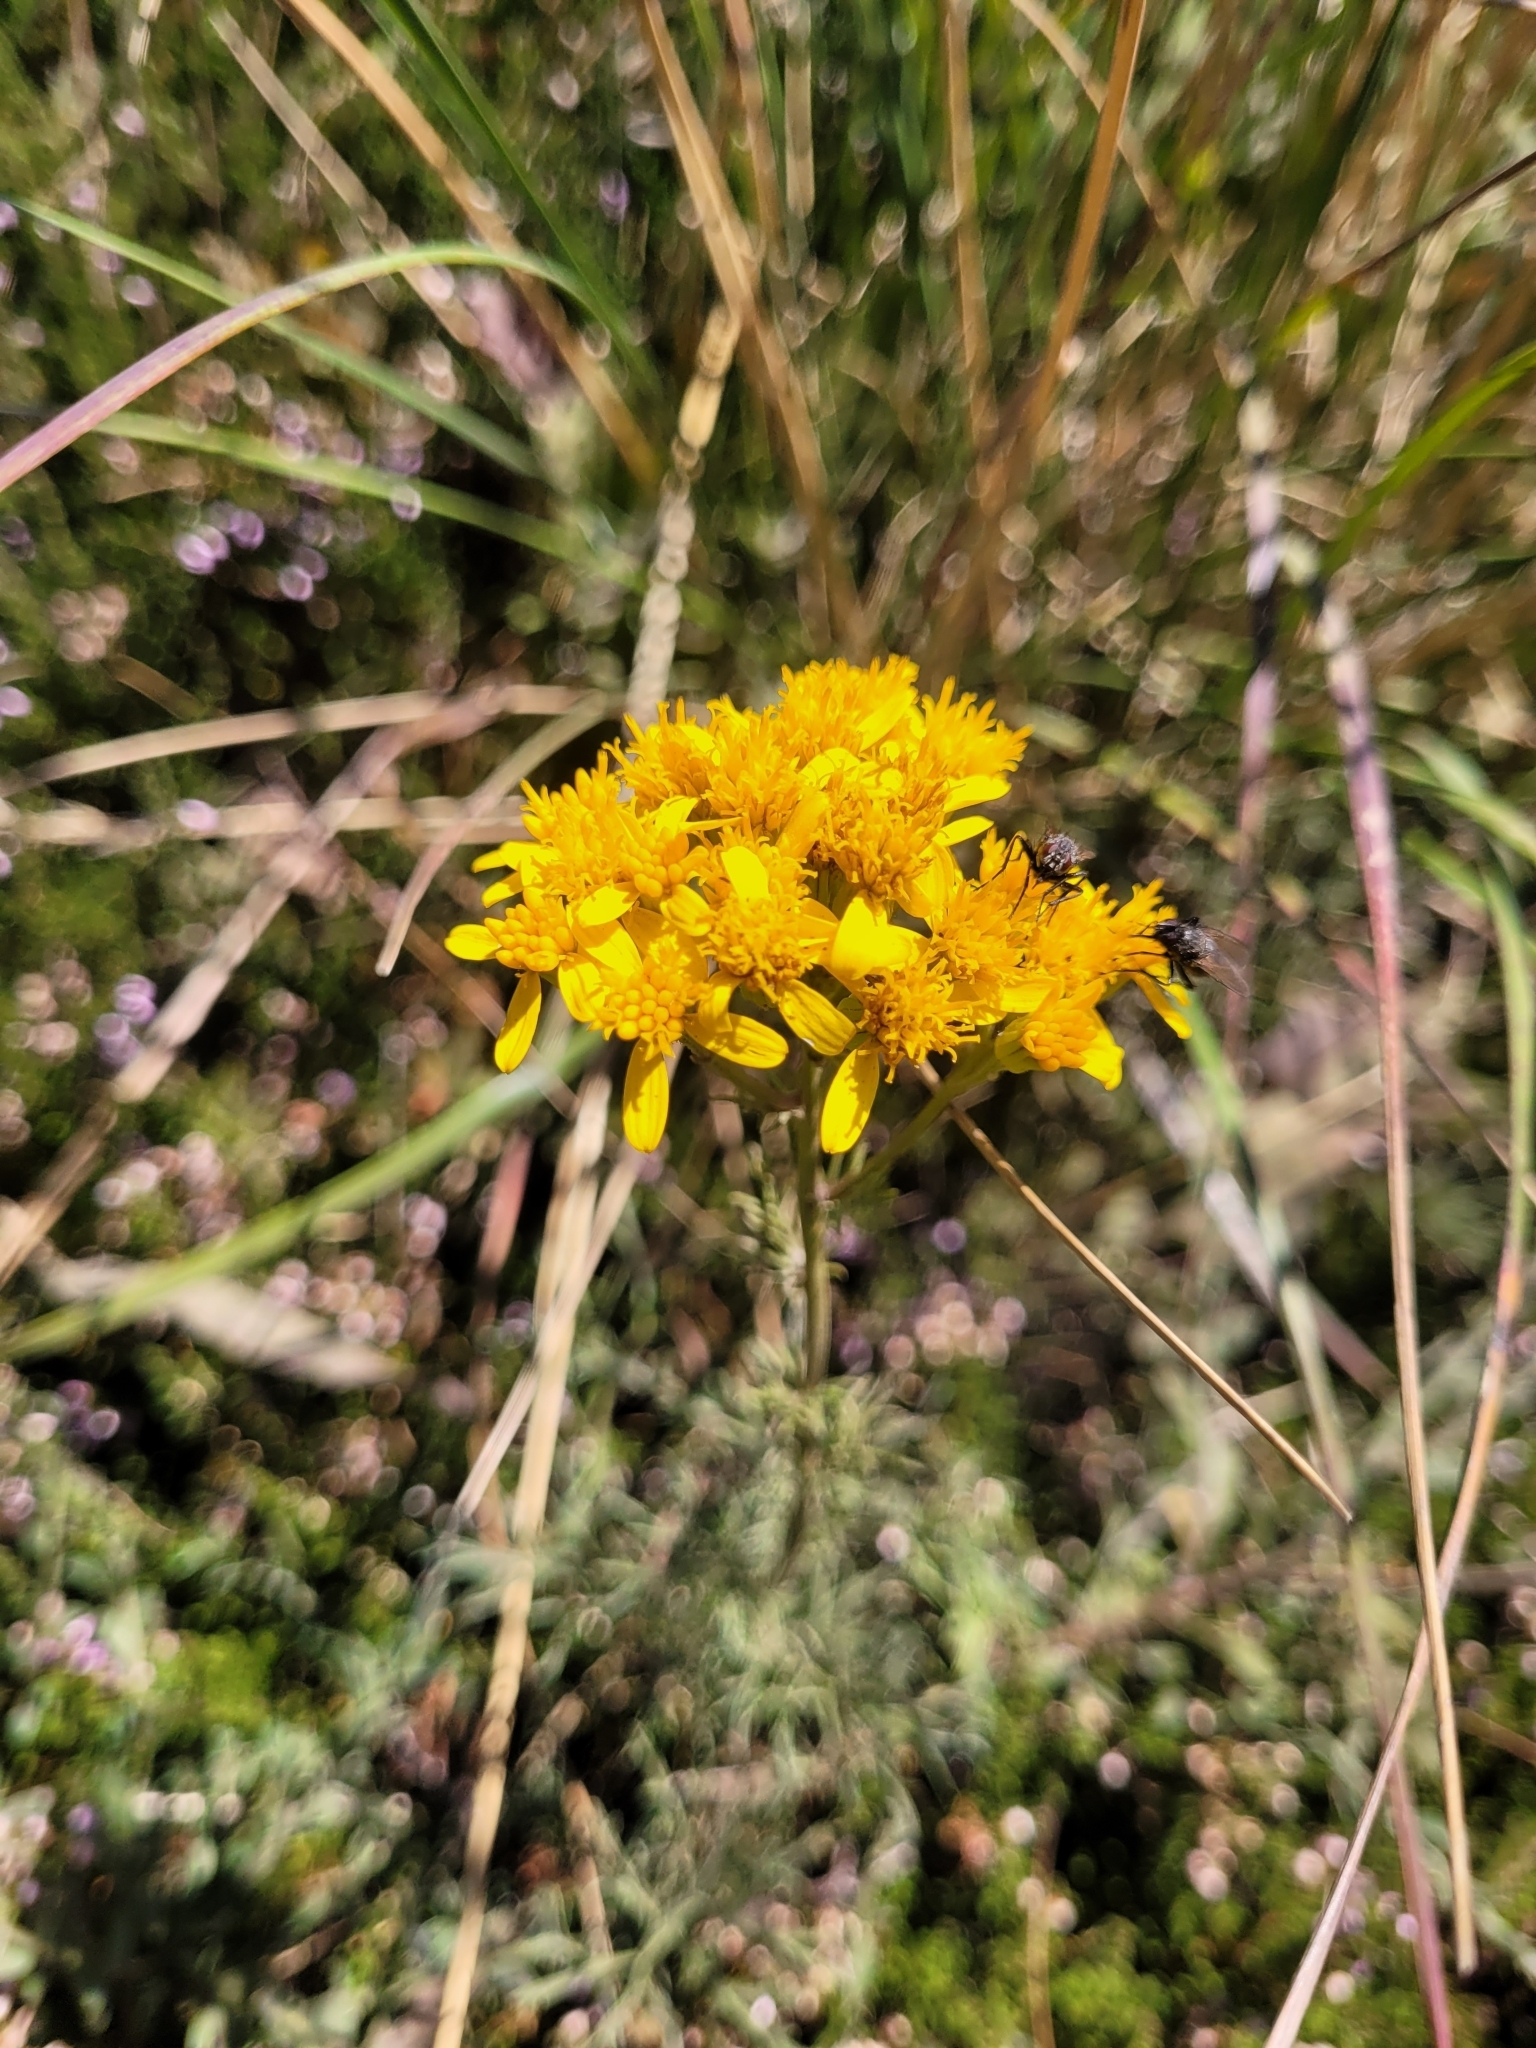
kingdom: Plantae
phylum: Tracheophyta
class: Magnoliopsida
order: Asterales
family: Asteraceae
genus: Jacobaea
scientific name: Jacobaea adonidifolia
